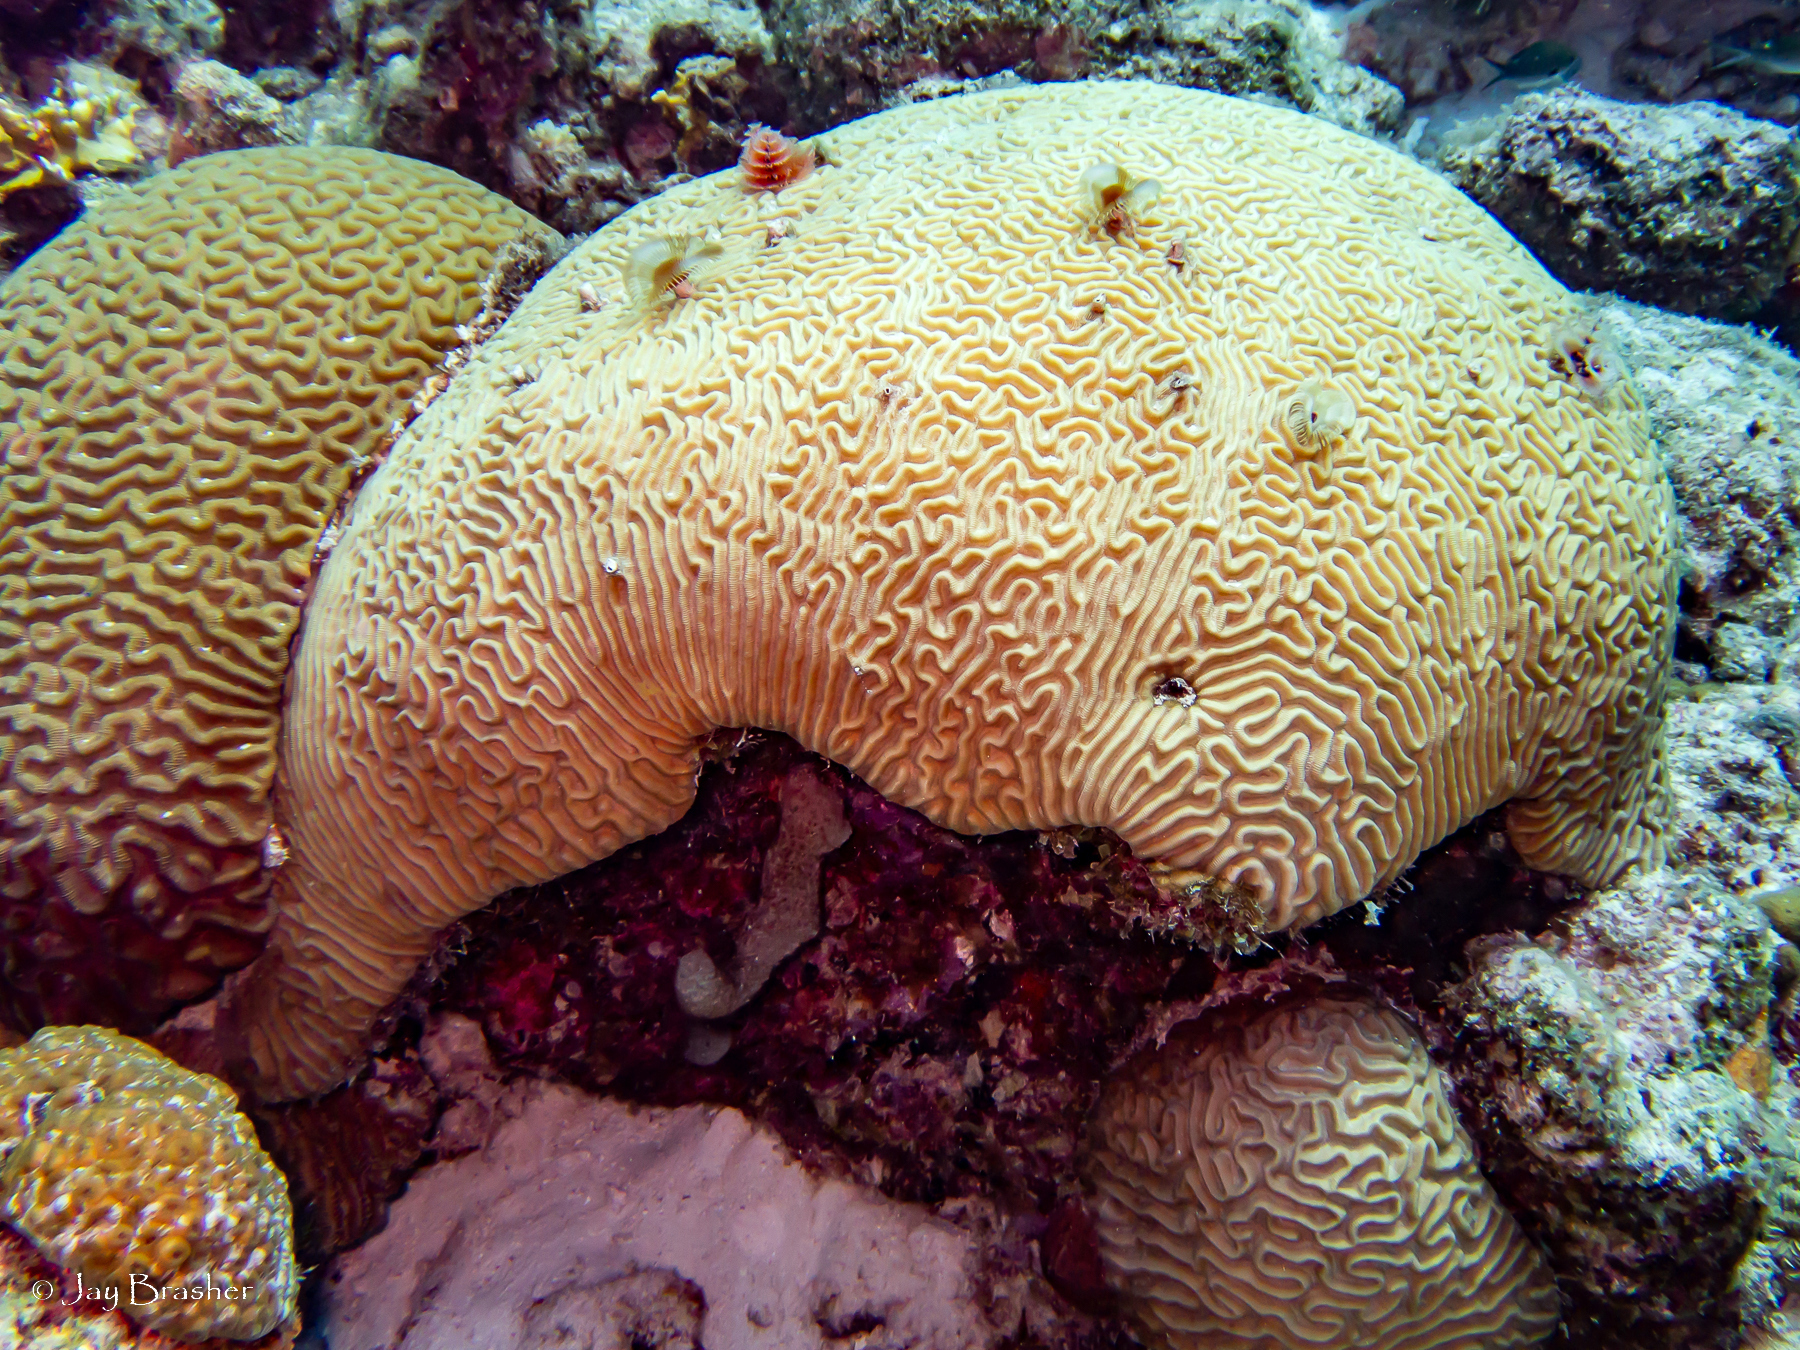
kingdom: Animalia
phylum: Cnidaria
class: Anthozoa
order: Scleractinia
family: Faviidae
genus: Pseudodiploria
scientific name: Pseudodiploria strigosa
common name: Symmetrical brain coral
